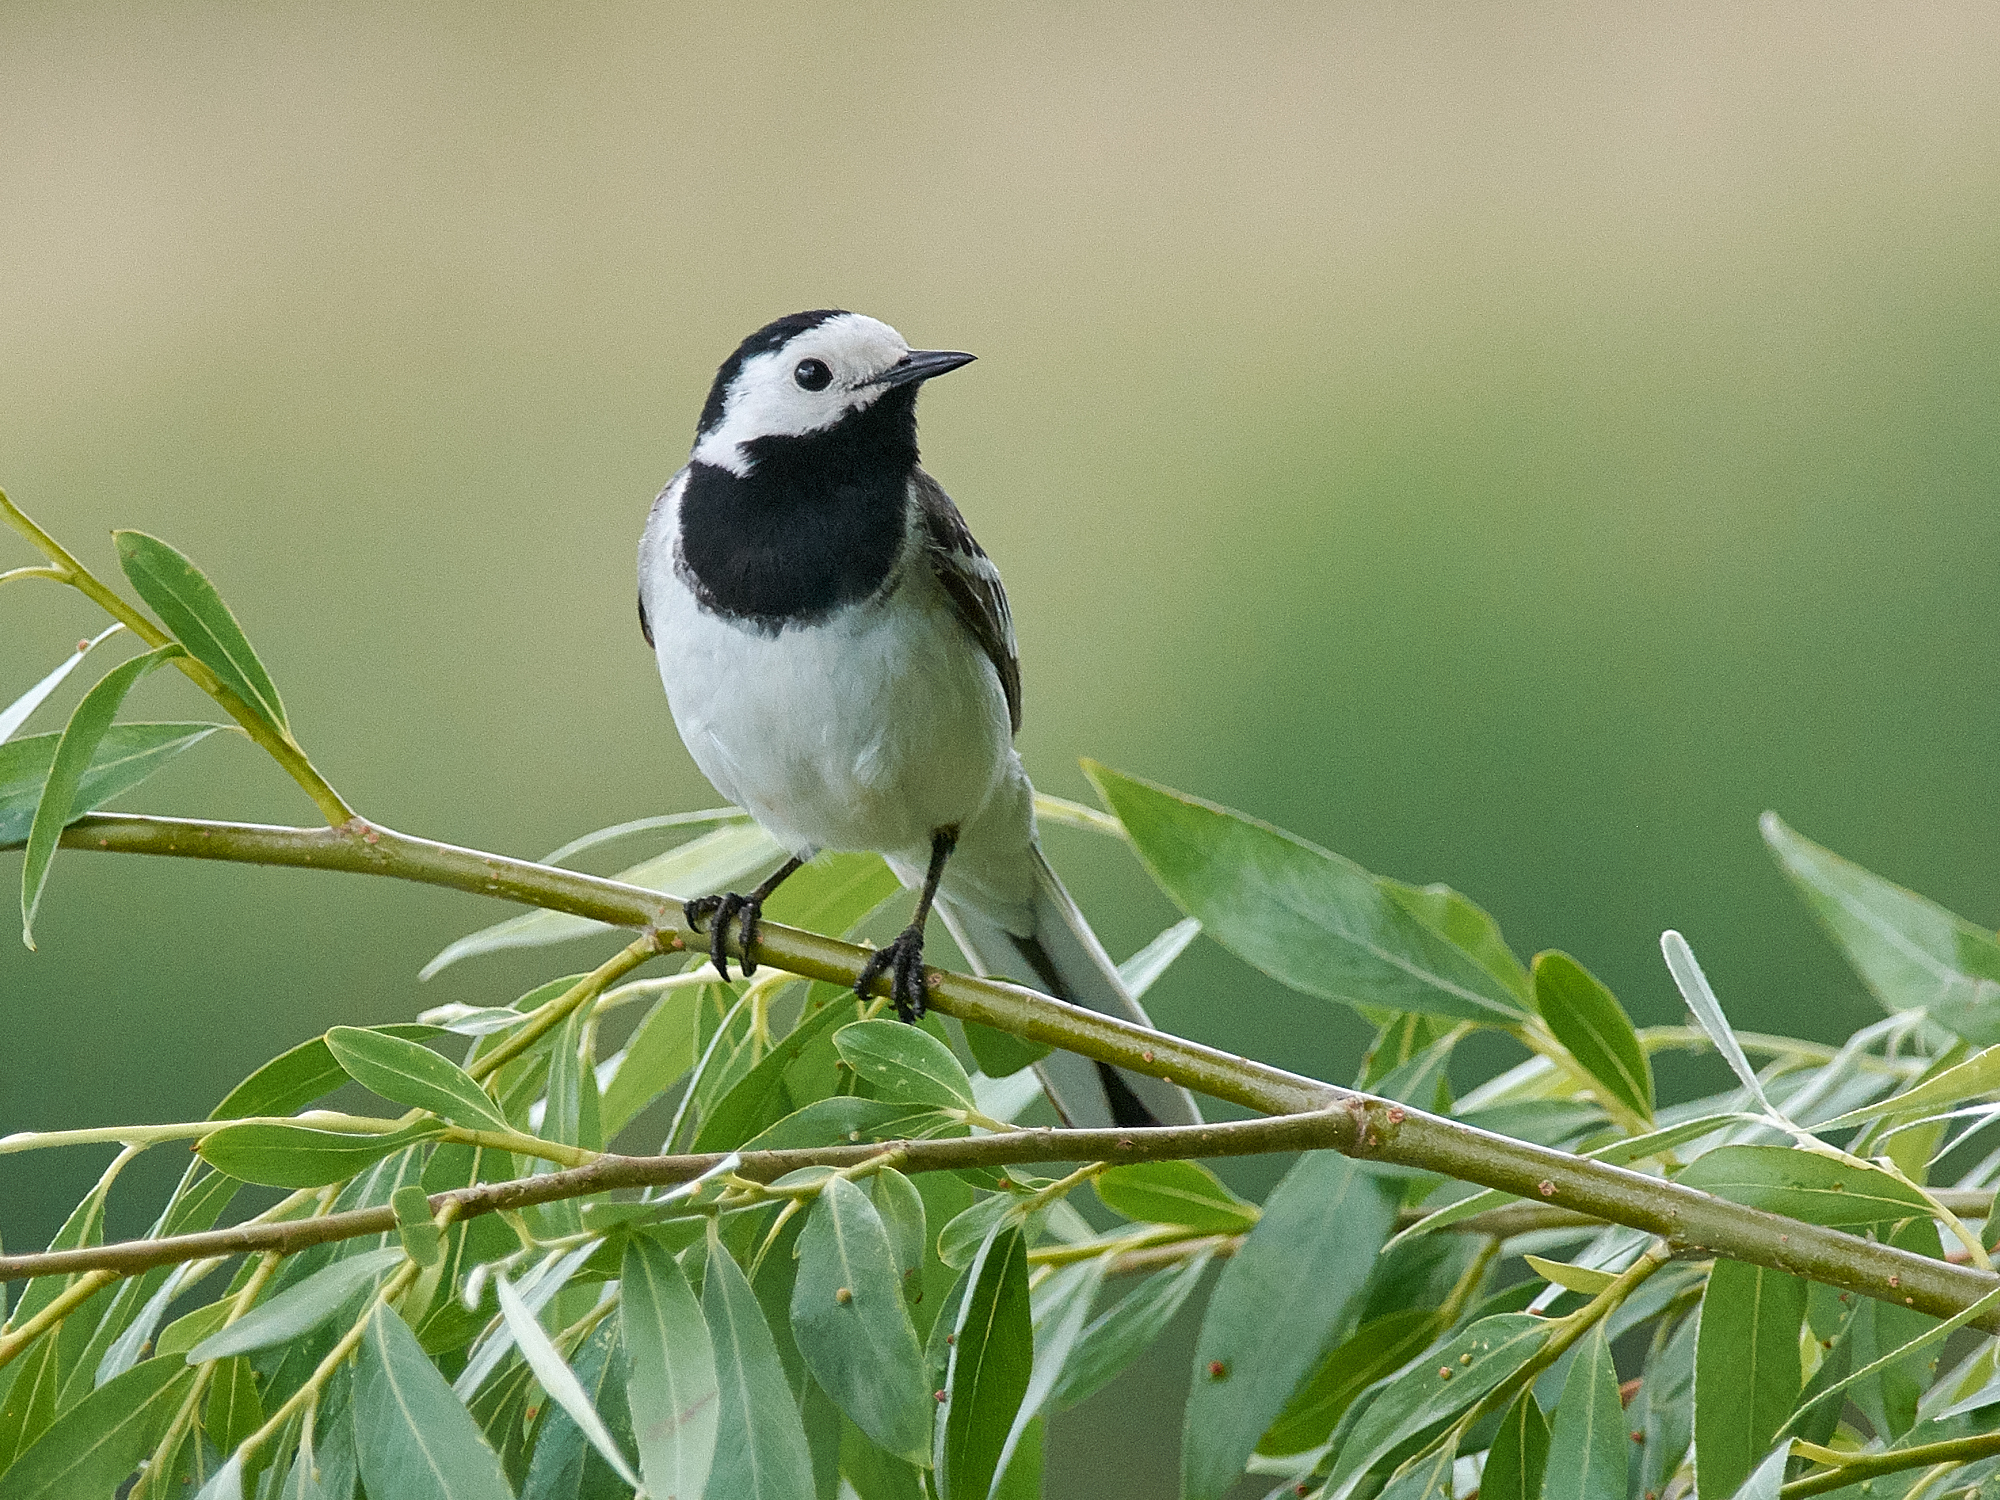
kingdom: Animalia
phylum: Chordata
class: Aves
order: Passeriformes
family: Motacillidae
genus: Motacilla
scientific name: Motacilla alba
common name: White wagtail
